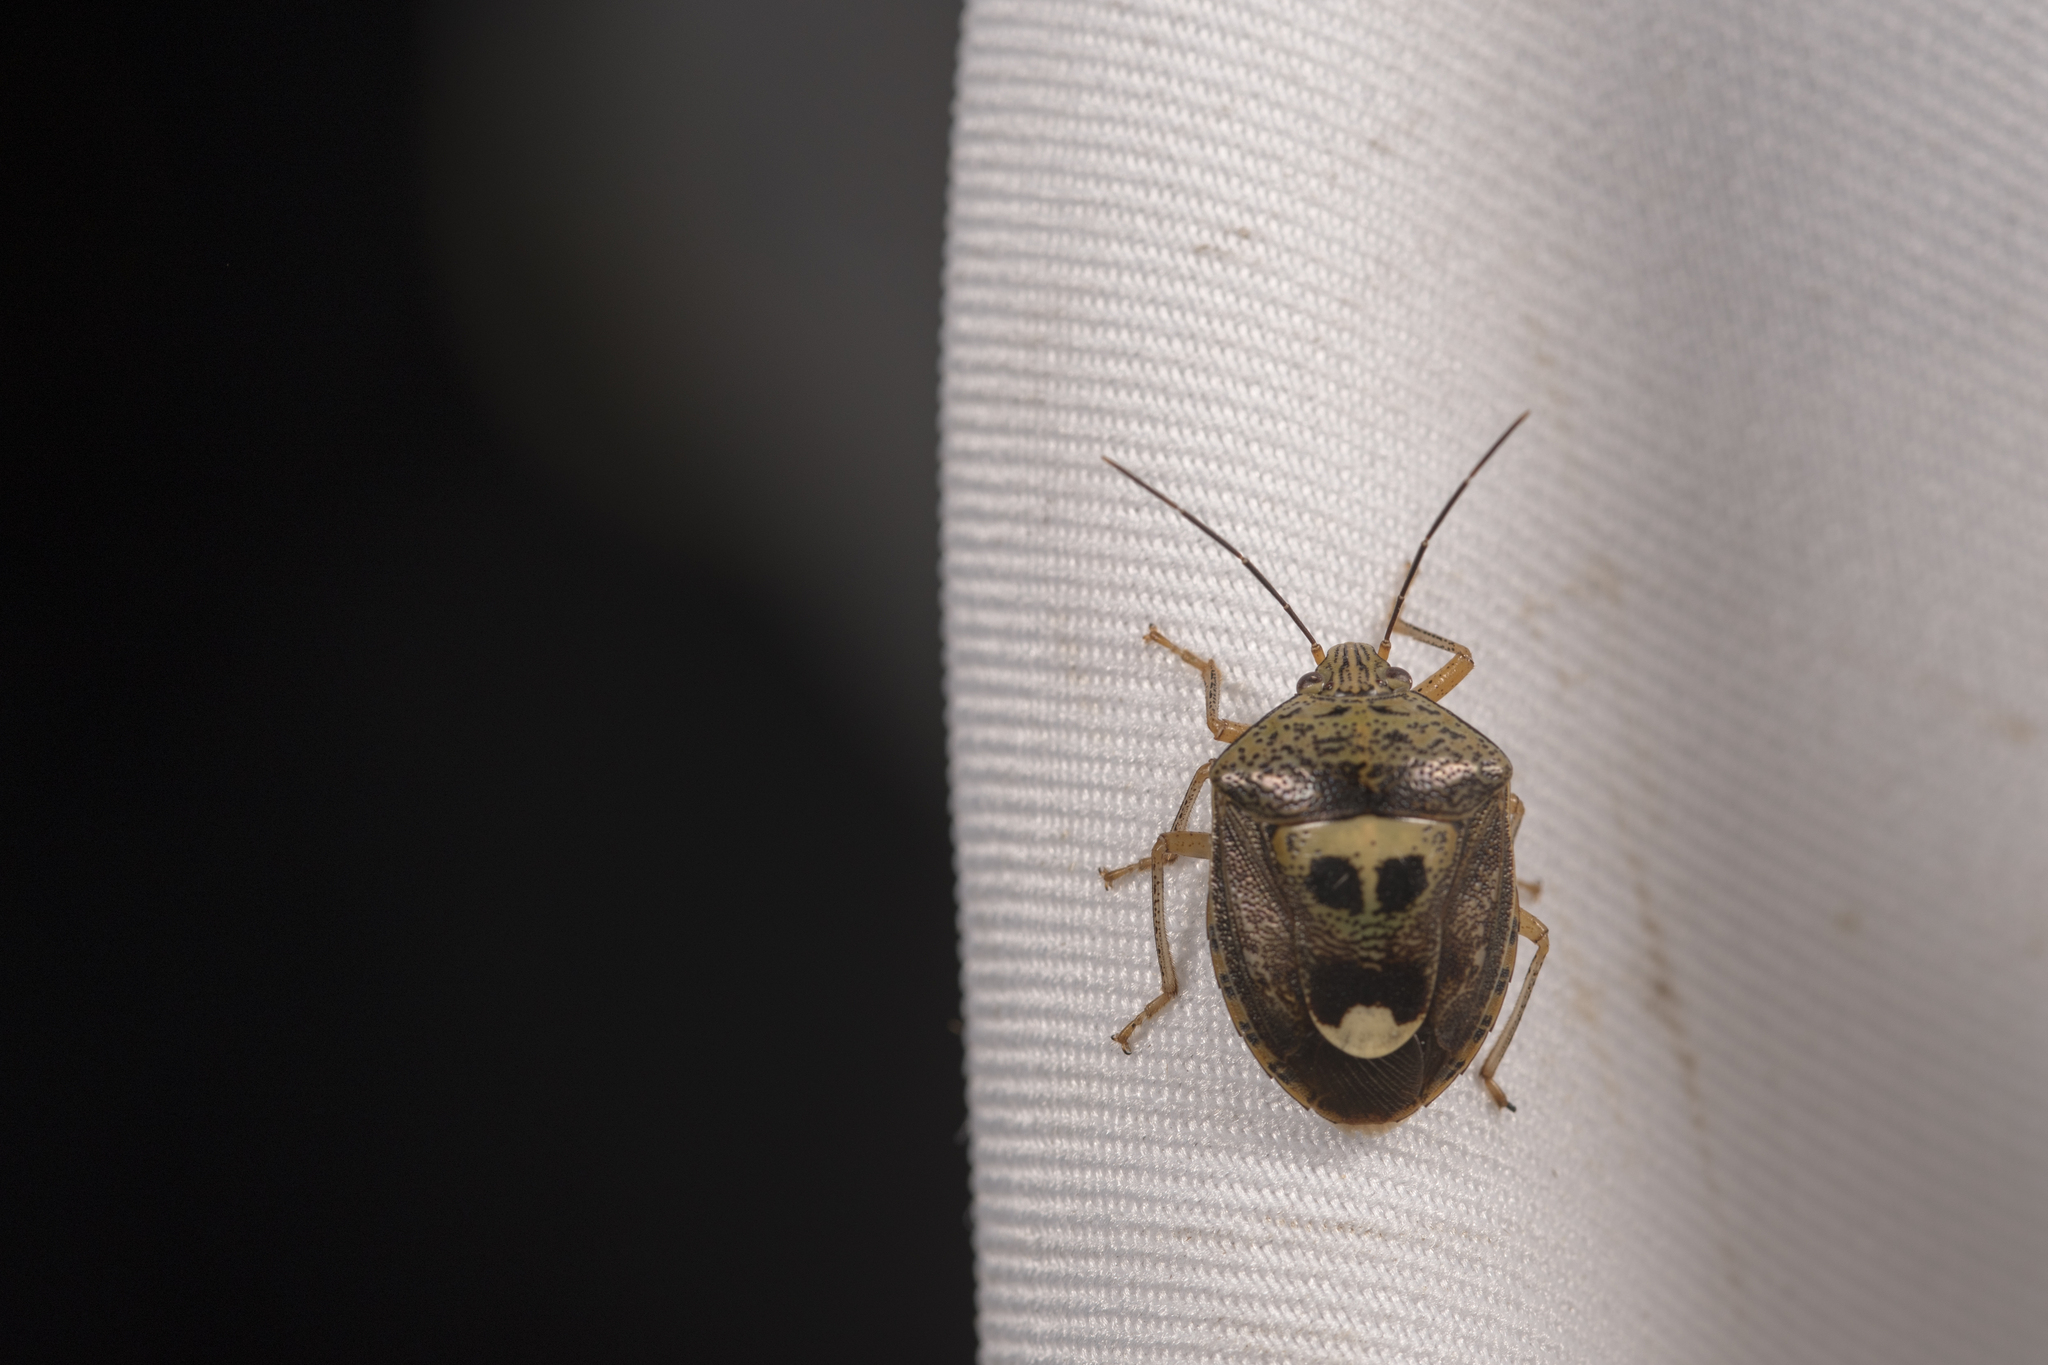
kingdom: Animalia
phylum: Arthropoda
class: Insecta
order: Hemiptera
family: Pentatomidae
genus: Axiagastus
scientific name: Axiagastus rosmarus
